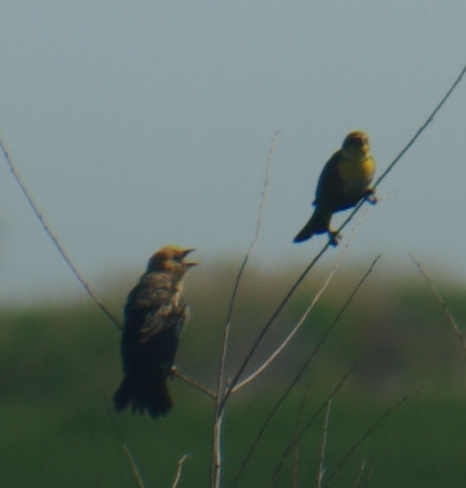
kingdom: Animalia
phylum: Chordata
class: Aves
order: Passeriformes
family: Icteridae
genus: Xanthocephalus
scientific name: Xanthocephalus xanthocephalus
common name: Yellow-headed blackbird
